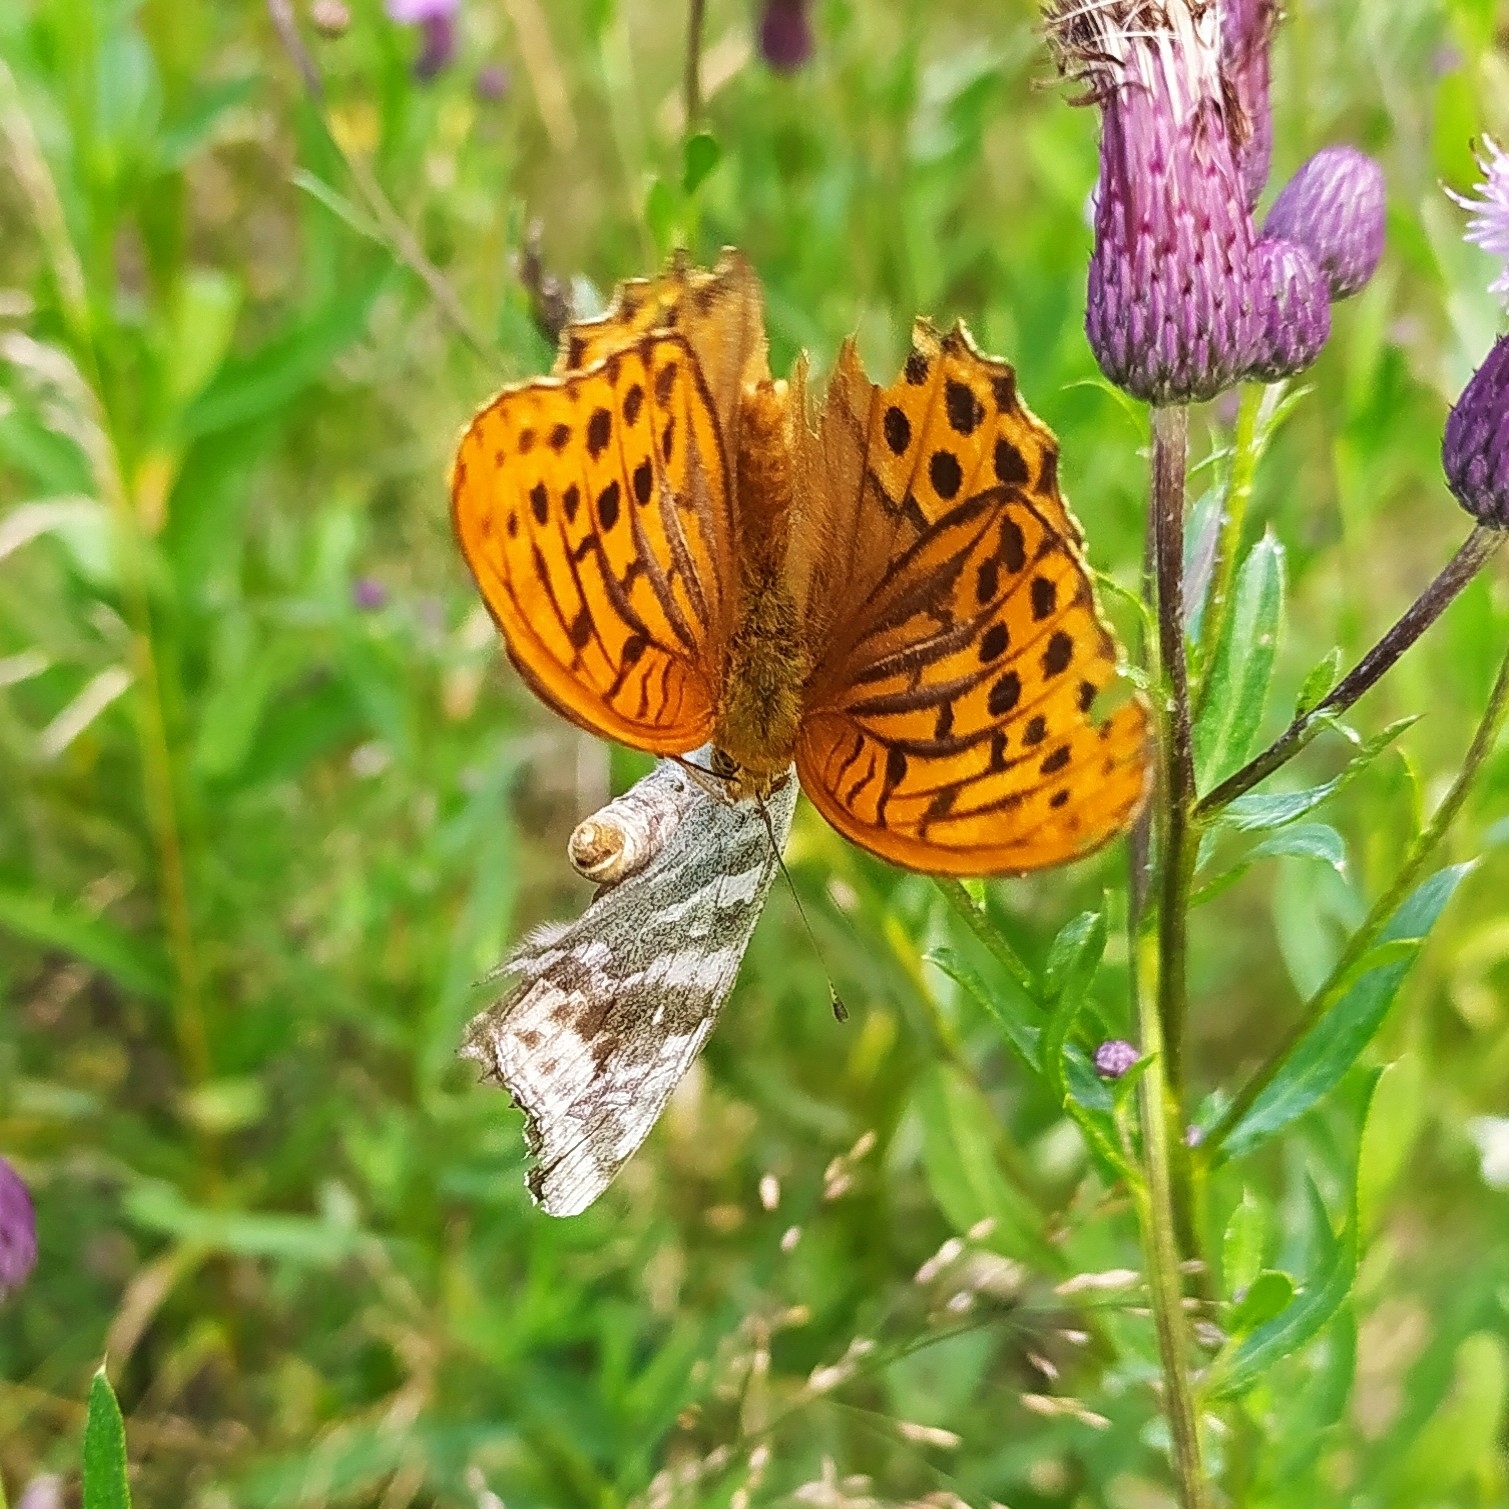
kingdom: Animalia
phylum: Arthropoda
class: Insecta
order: Lepidoptera
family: Nymphalidae
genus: Argynnis
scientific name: Argynnis paphia
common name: Silver-washed fritillary
